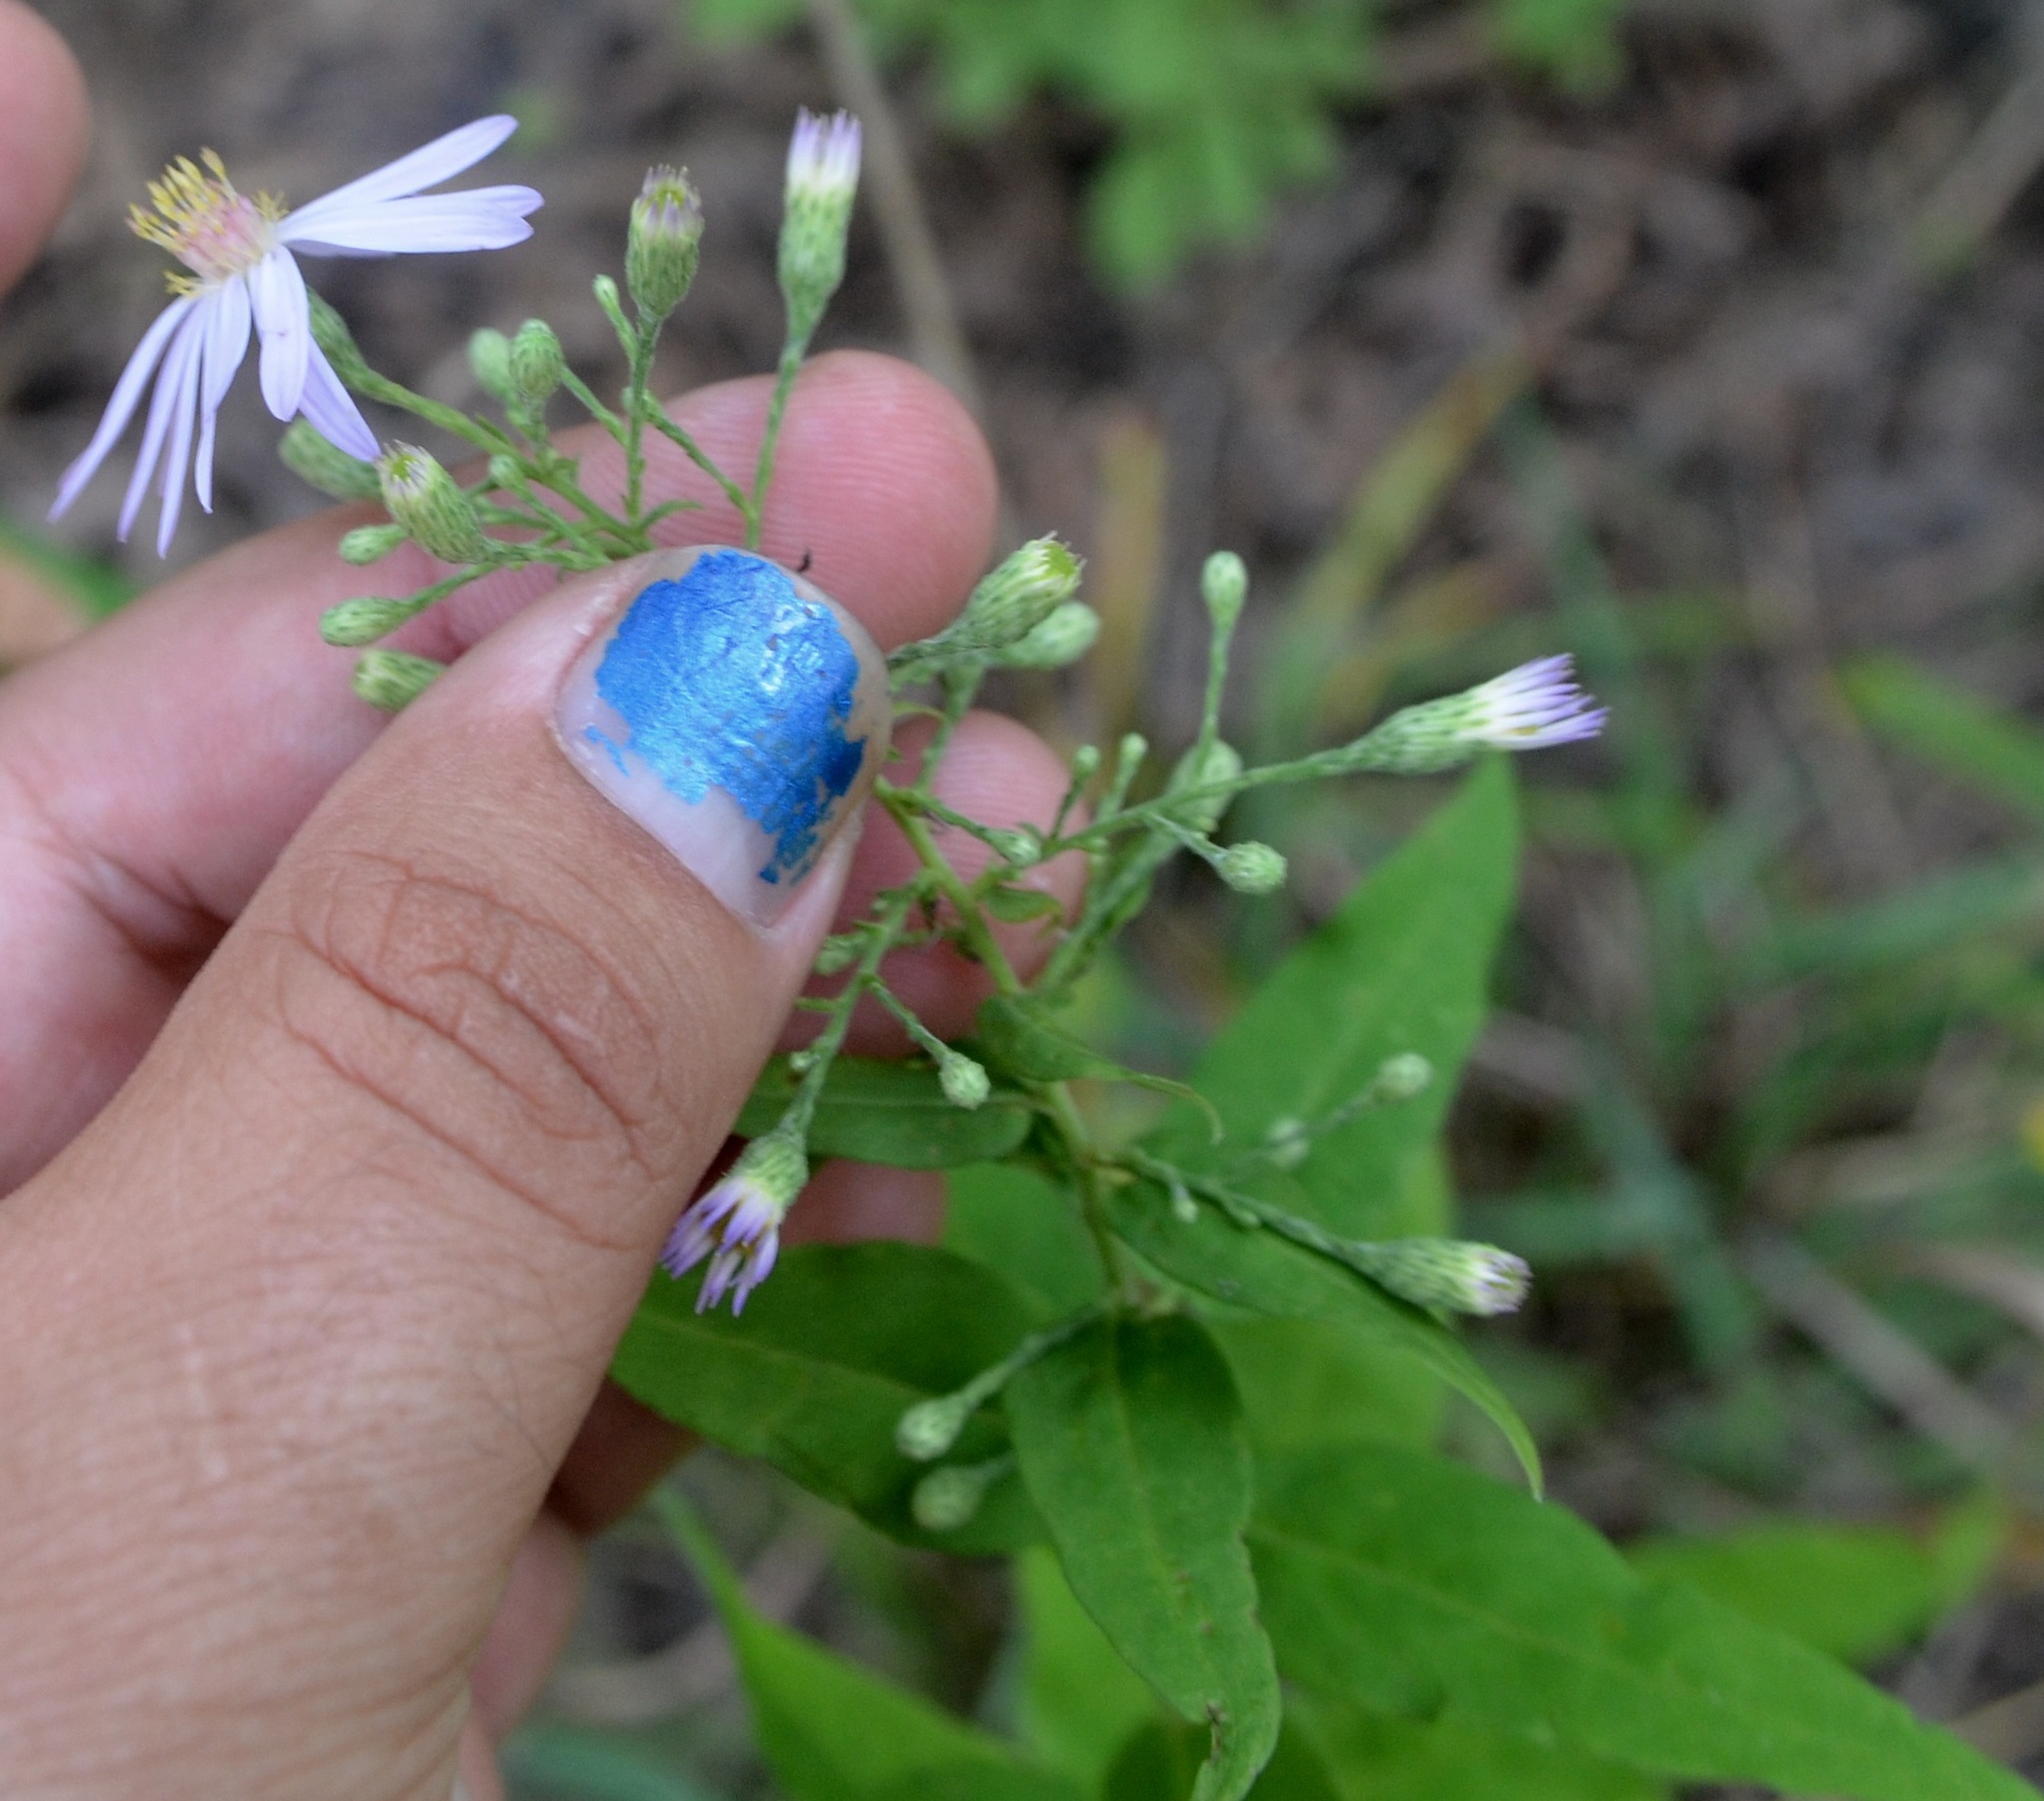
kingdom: Plantae
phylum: Tracheophyta
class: Magnoliopsida
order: Asterales
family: Asteraceae
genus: Symphyotrichum
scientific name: Symphyotrichum shortii
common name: Short's aster
